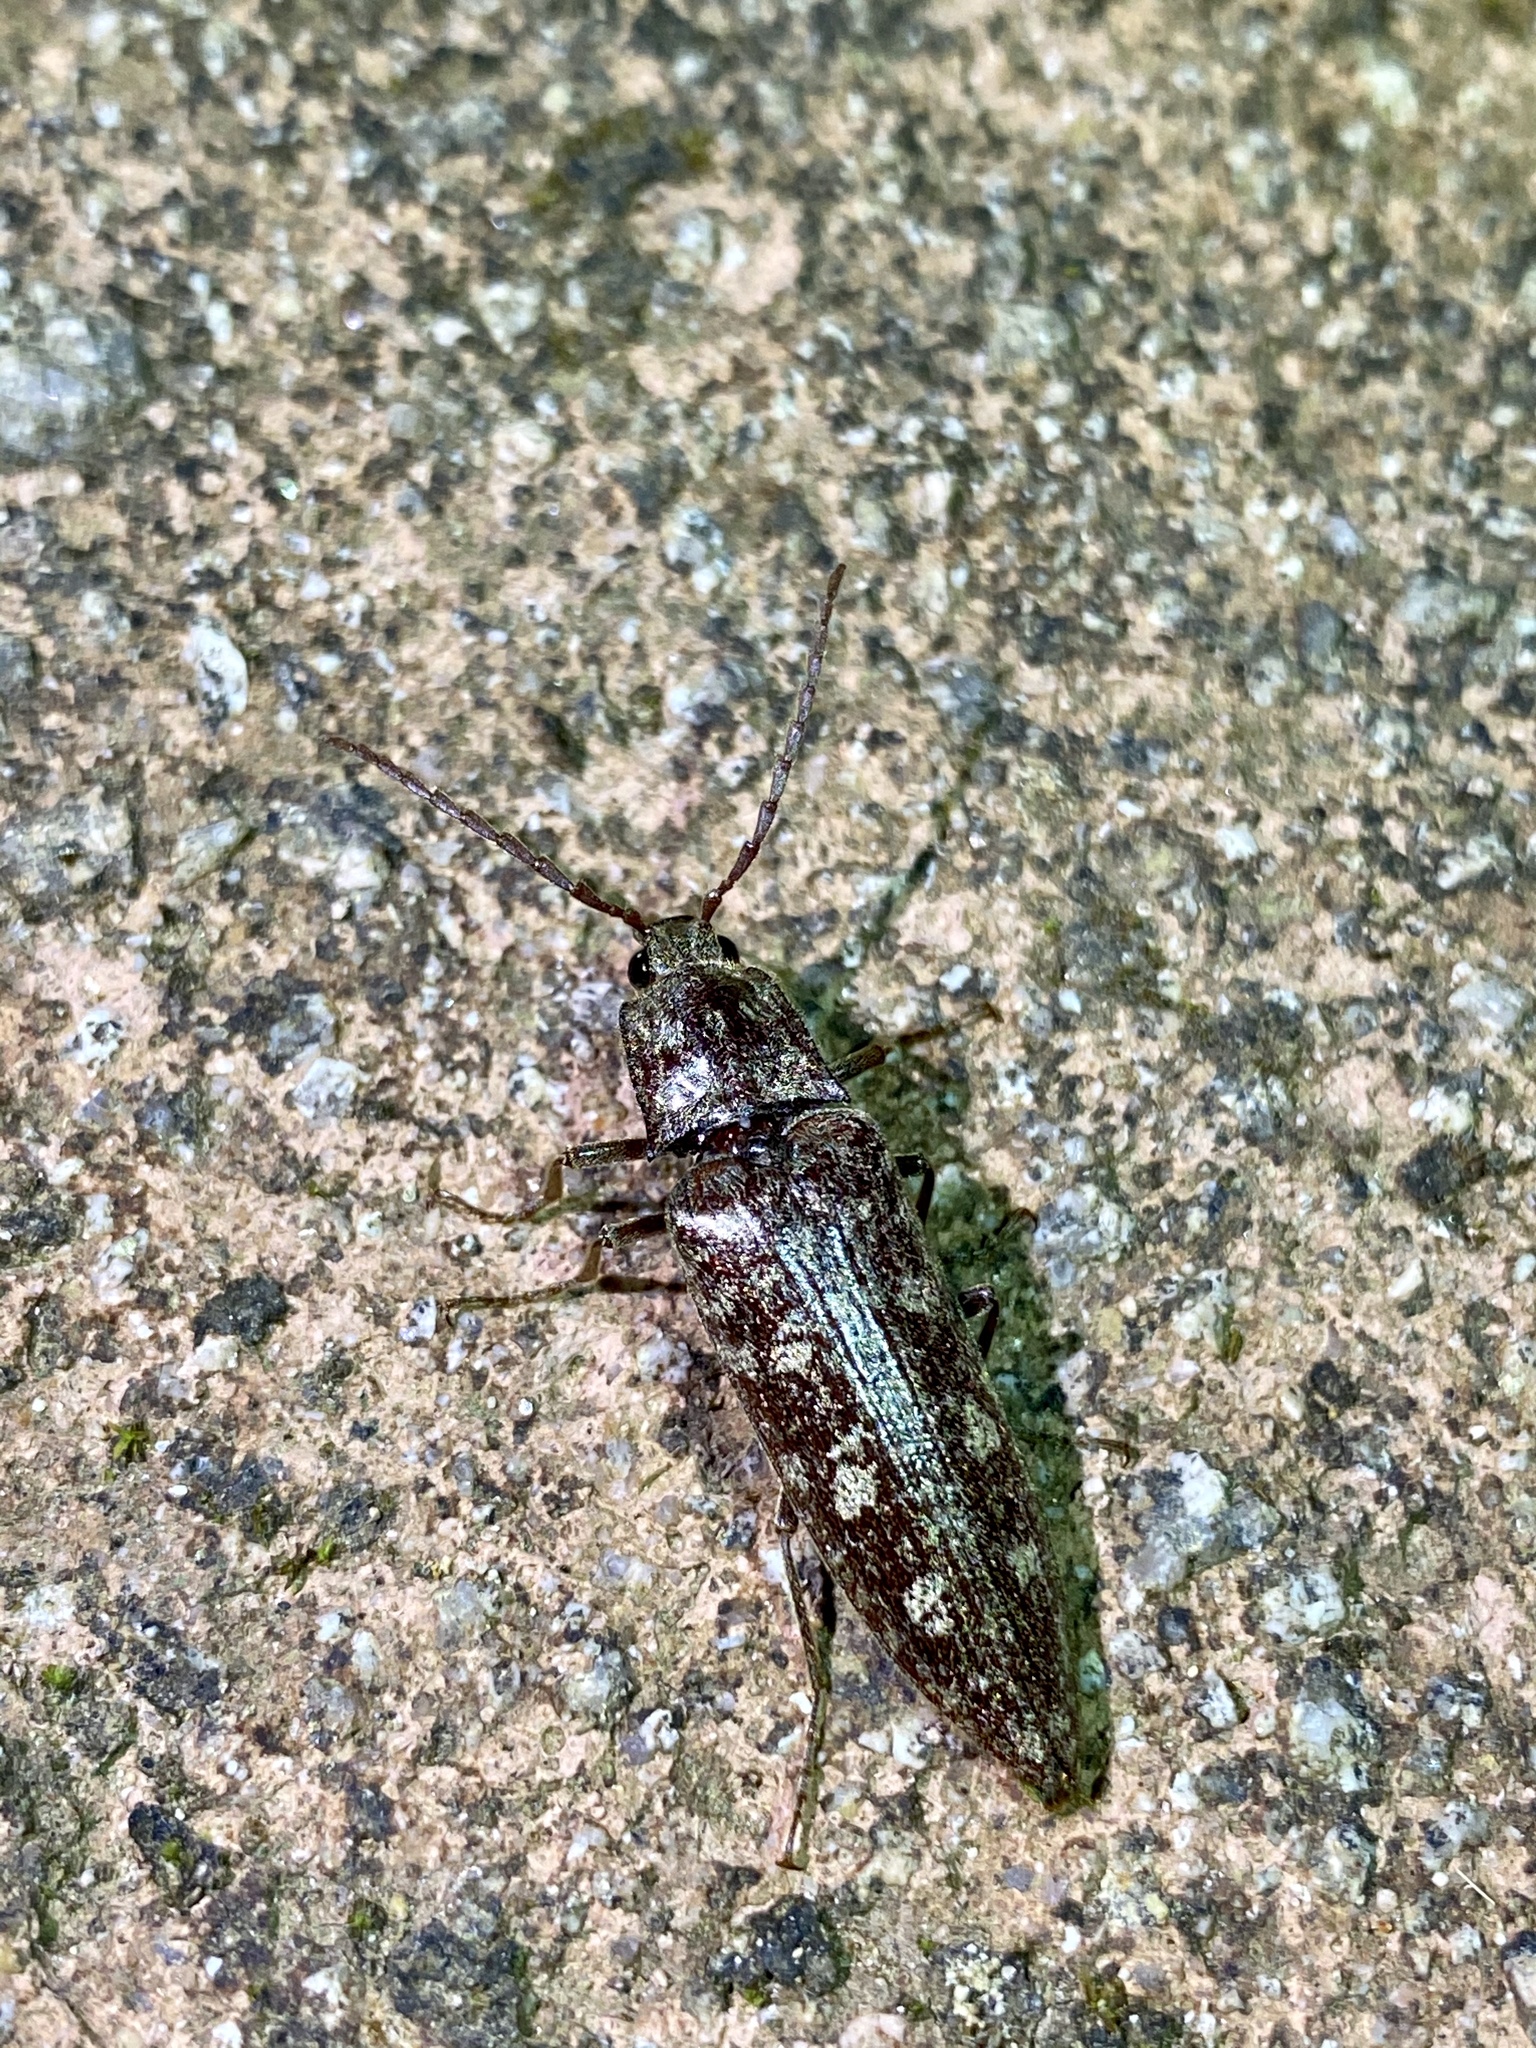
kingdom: Animalia
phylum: Arthropoda
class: Insecta
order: Coleoptera
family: Elateridae
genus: Pectocera
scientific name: Pectocera fortunei
